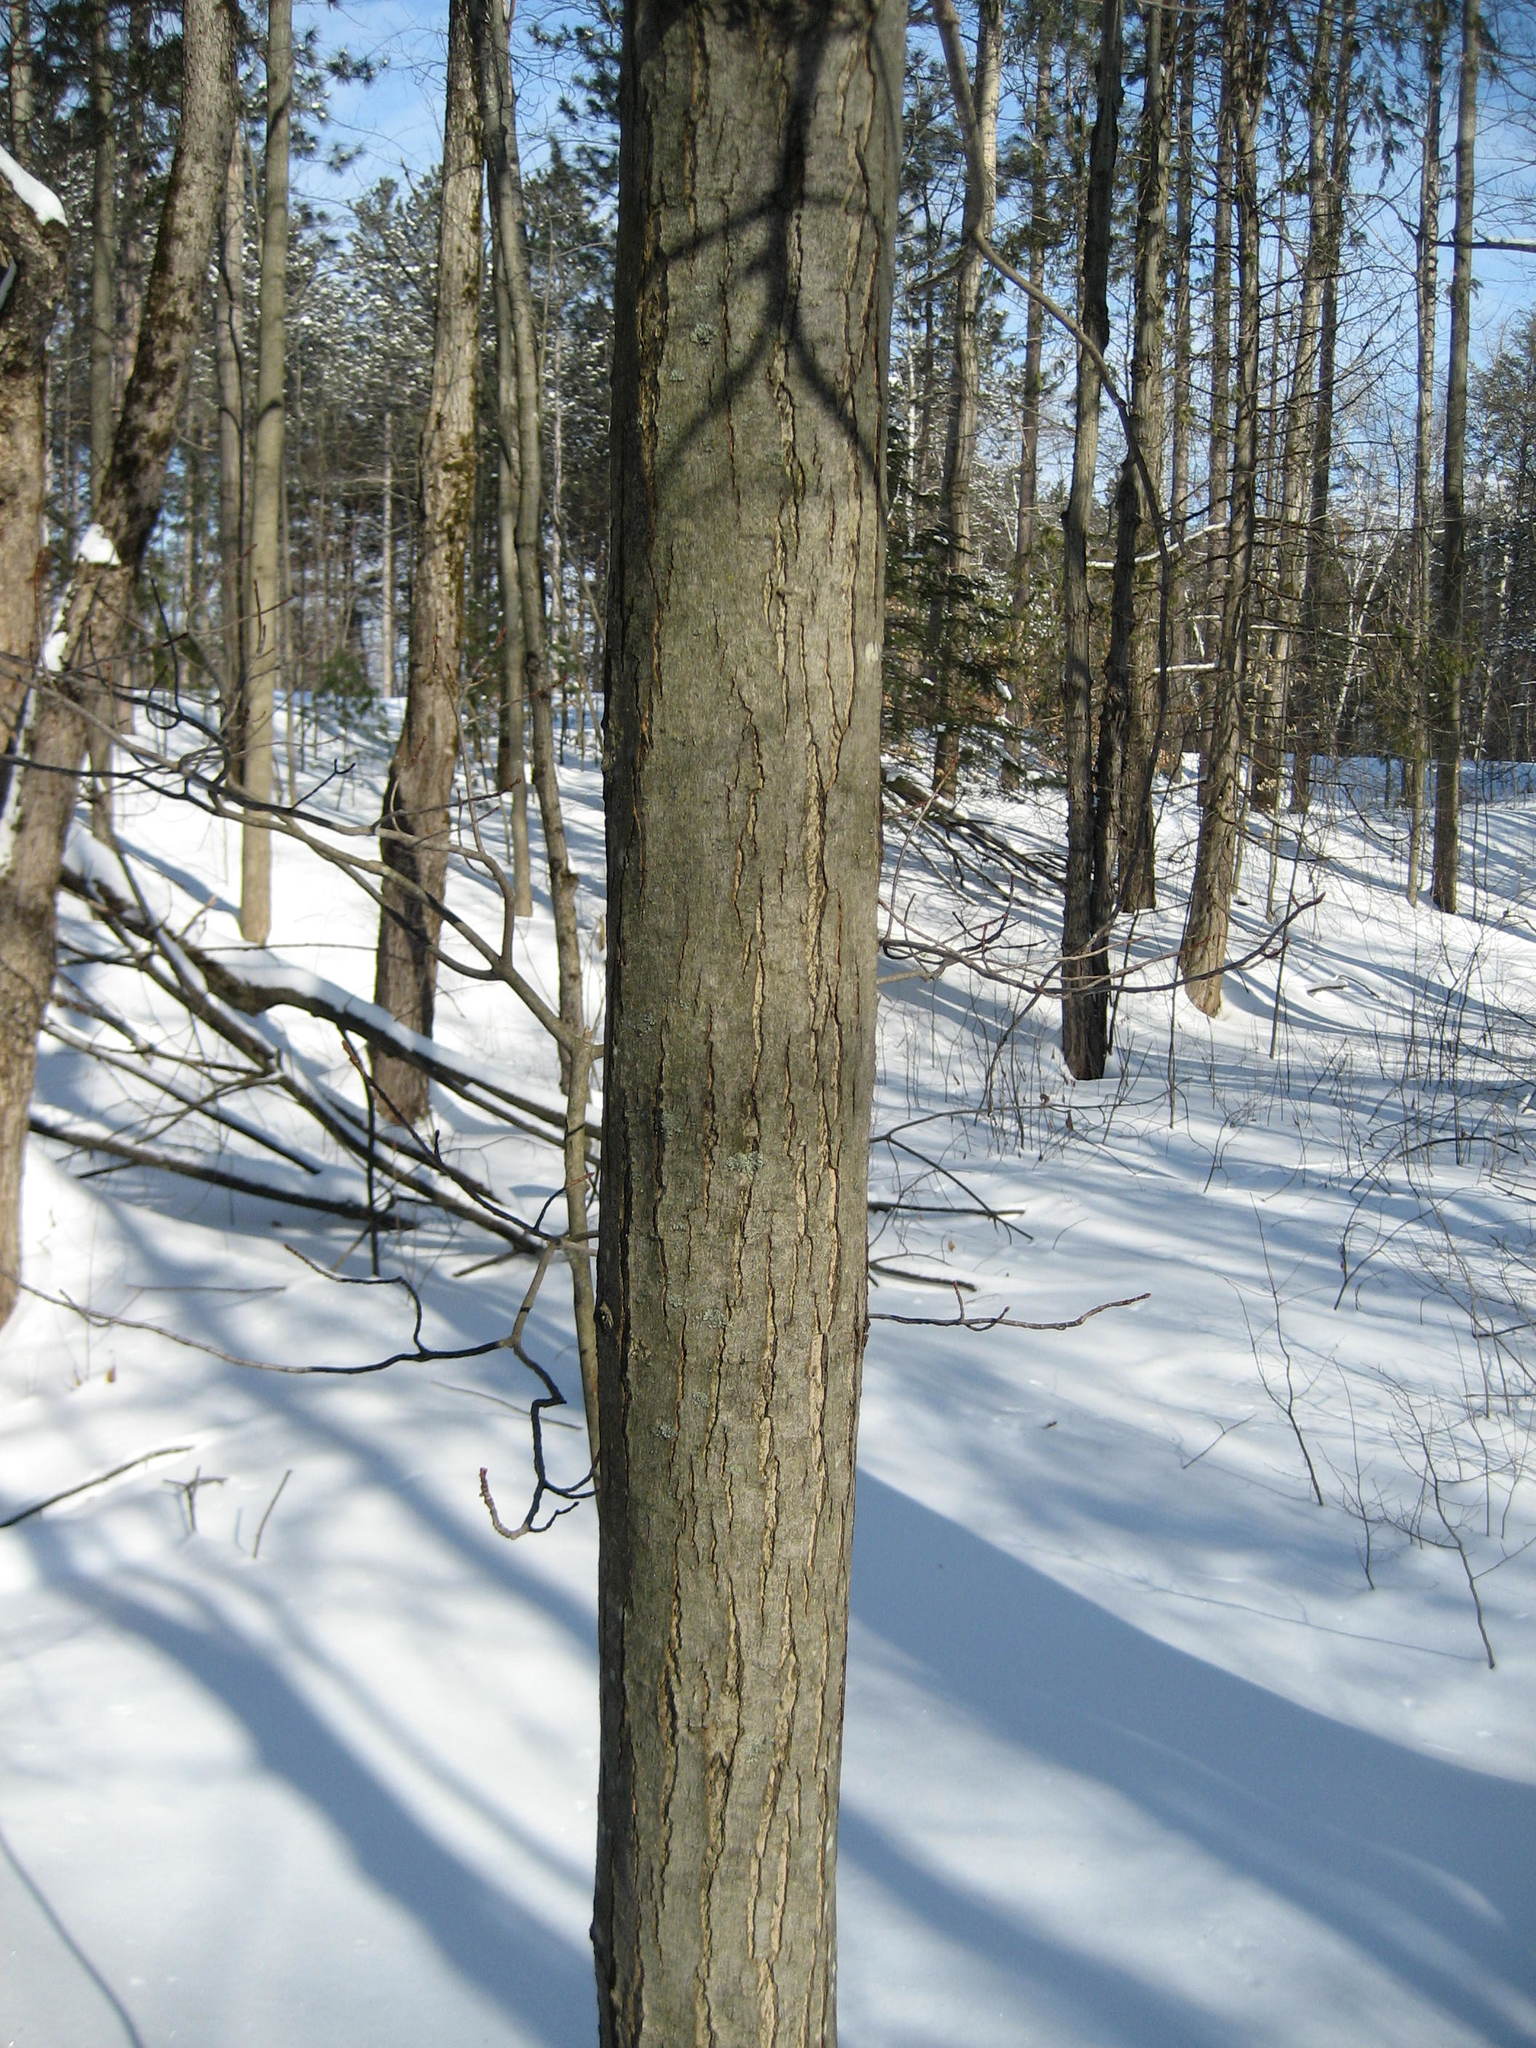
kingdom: Plantae
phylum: Tracheophyta
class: Magnoliopsida
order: Sapindales
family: Sapindaceae
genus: Acer
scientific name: Acer rubrum
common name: Red maple
